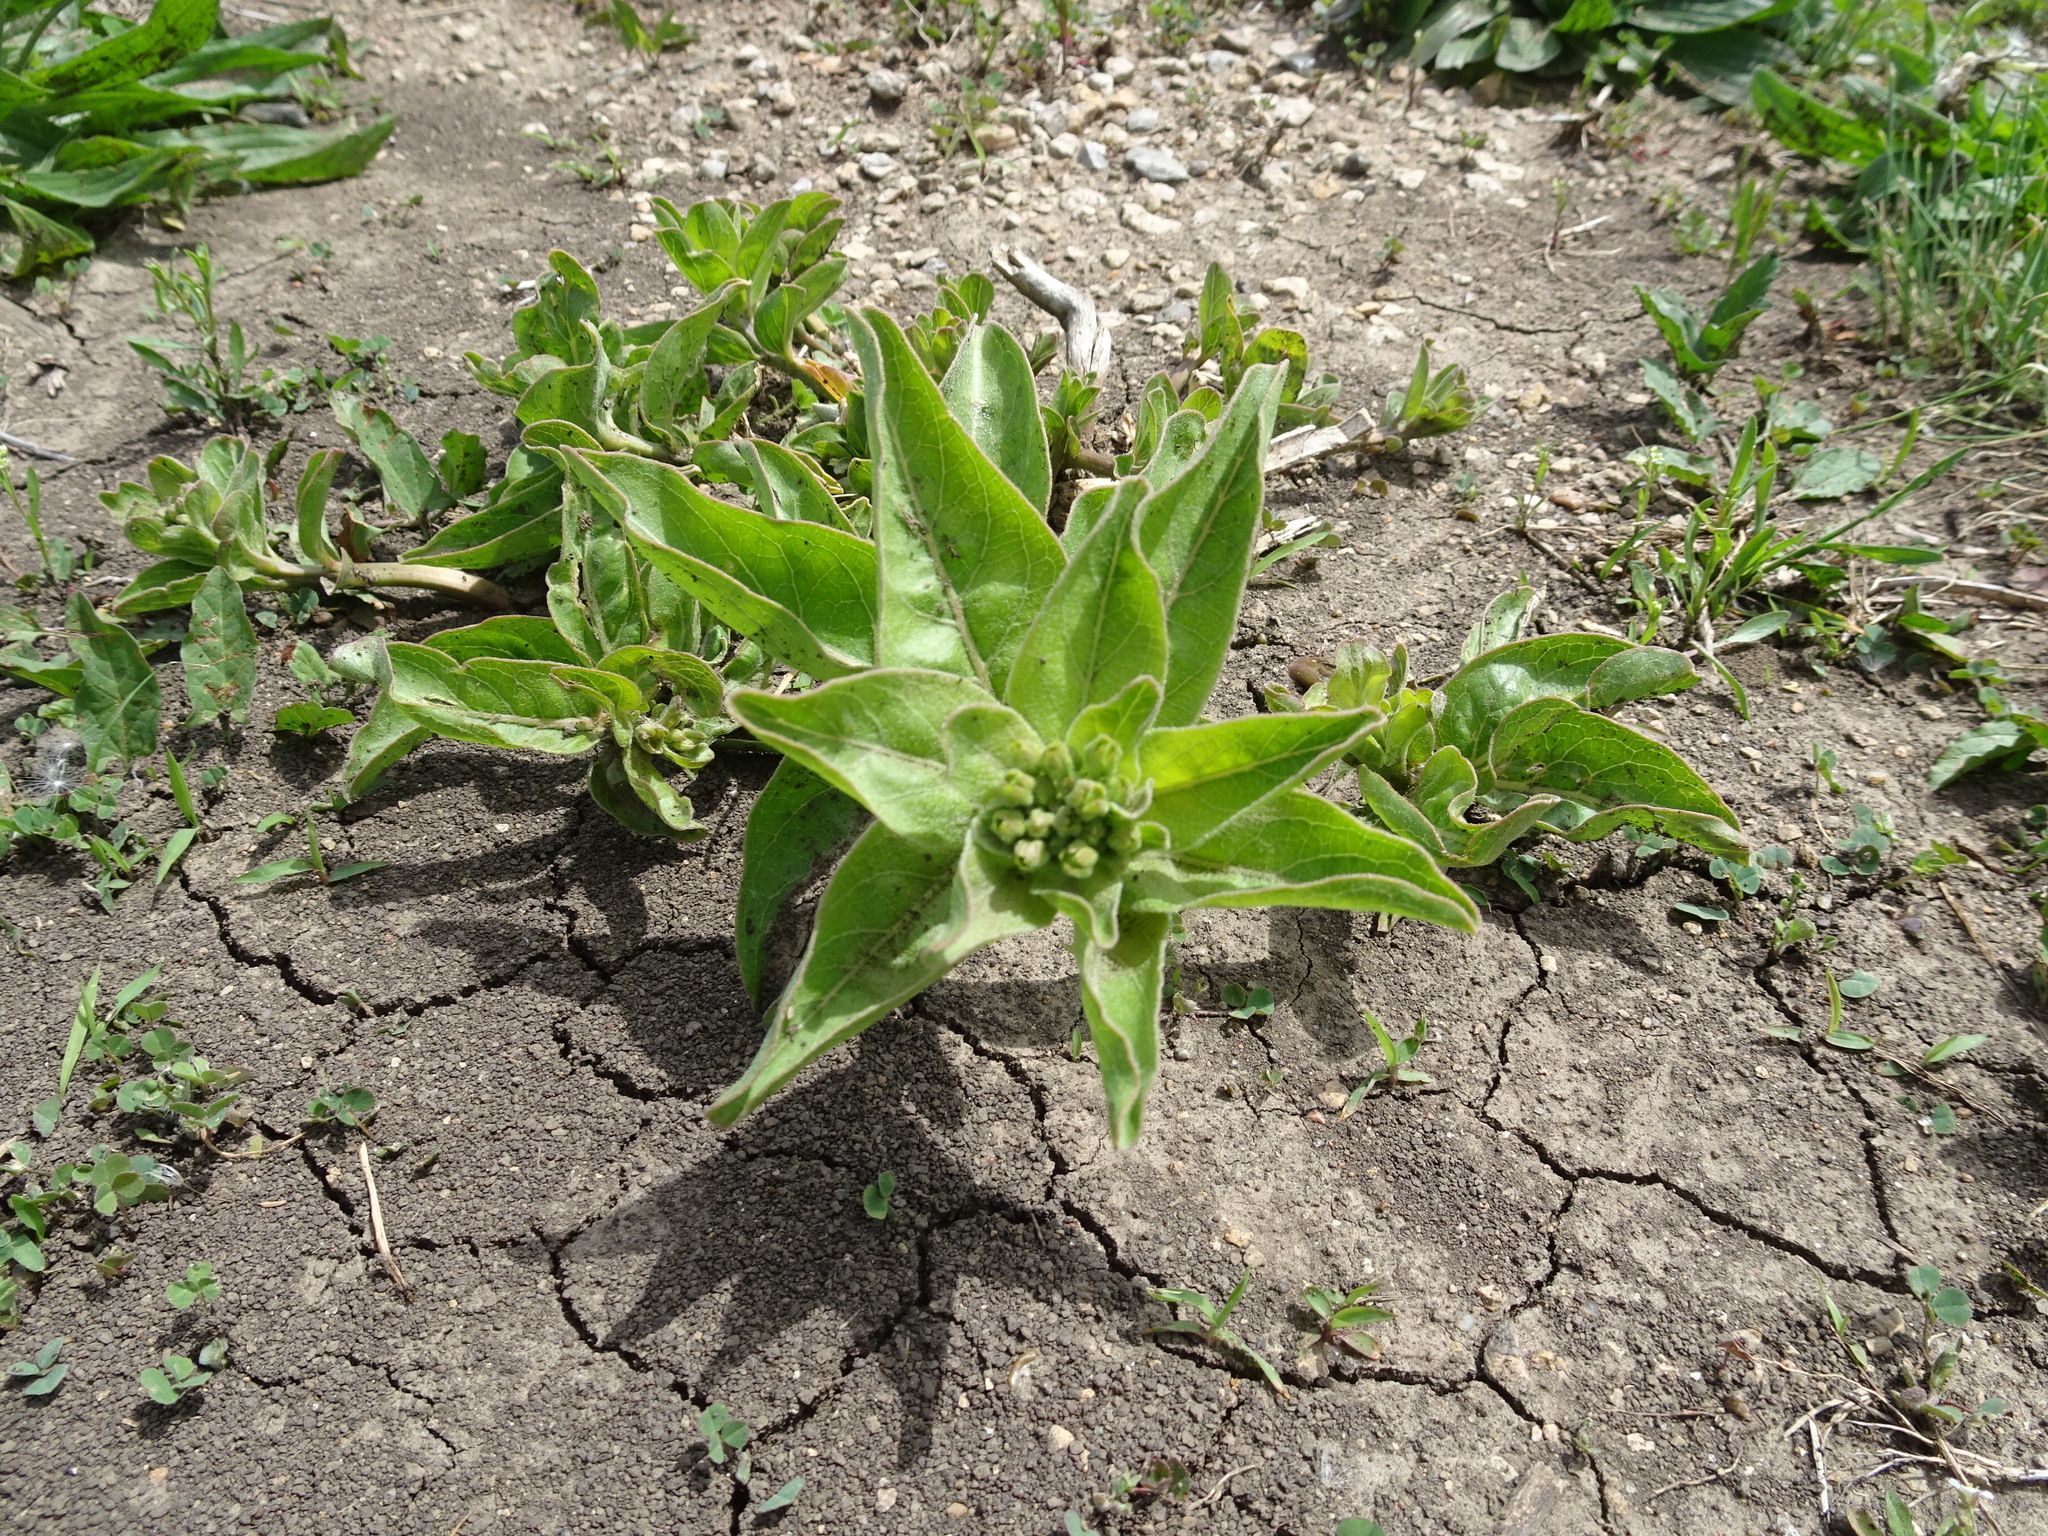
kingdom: Plantae
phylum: Tracheophyta
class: Magnoliopsida
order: Gentianales
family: Apocynaceae
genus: Asclepias
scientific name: Asclepias viridis
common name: Antelope-horns
